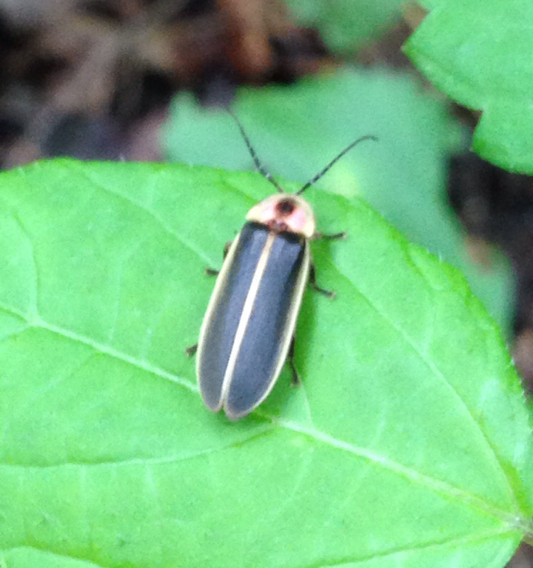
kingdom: Animalia
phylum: Arthropoda
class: Insecta
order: Coleoptera
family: Lampyridae
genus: Photinus
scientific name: Photinus pyralis
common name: Big dipper firefly
